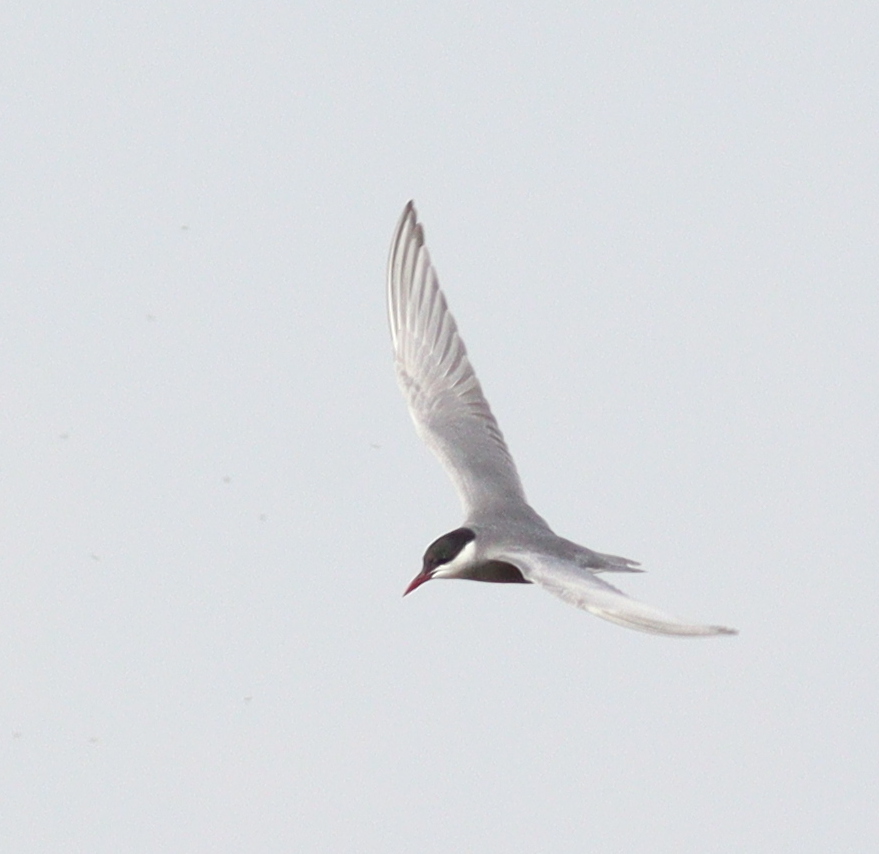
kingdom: Animalia
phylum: Chordata
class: Aves
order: Charadriiformes
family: Laridae
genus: Chlidonias
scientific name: Chlidonias hybrida
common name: Whiskered tern
